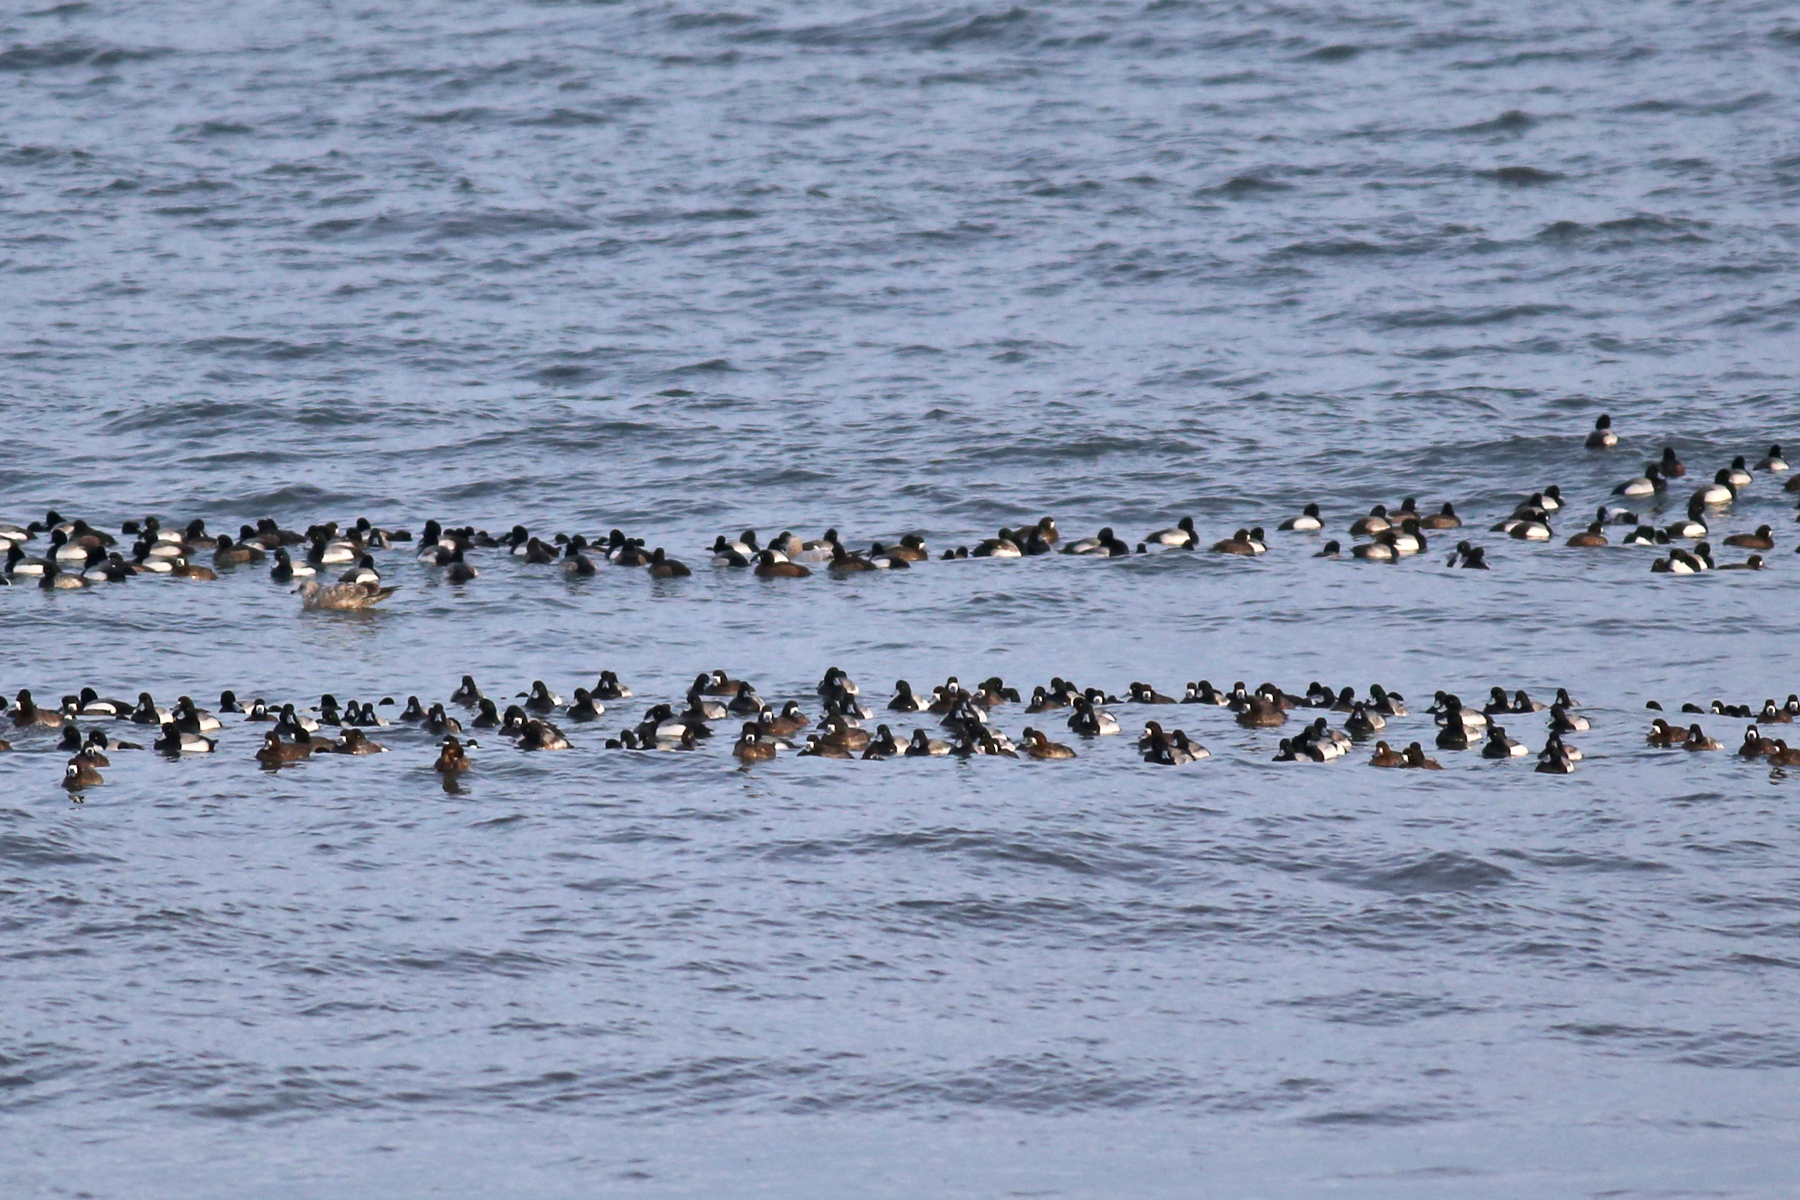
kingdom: Animalia
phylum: Chordata
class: Aves
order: Anseriformes
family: Anatidae
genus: Aythya
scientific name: Aythya marila
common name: Greater scaup
